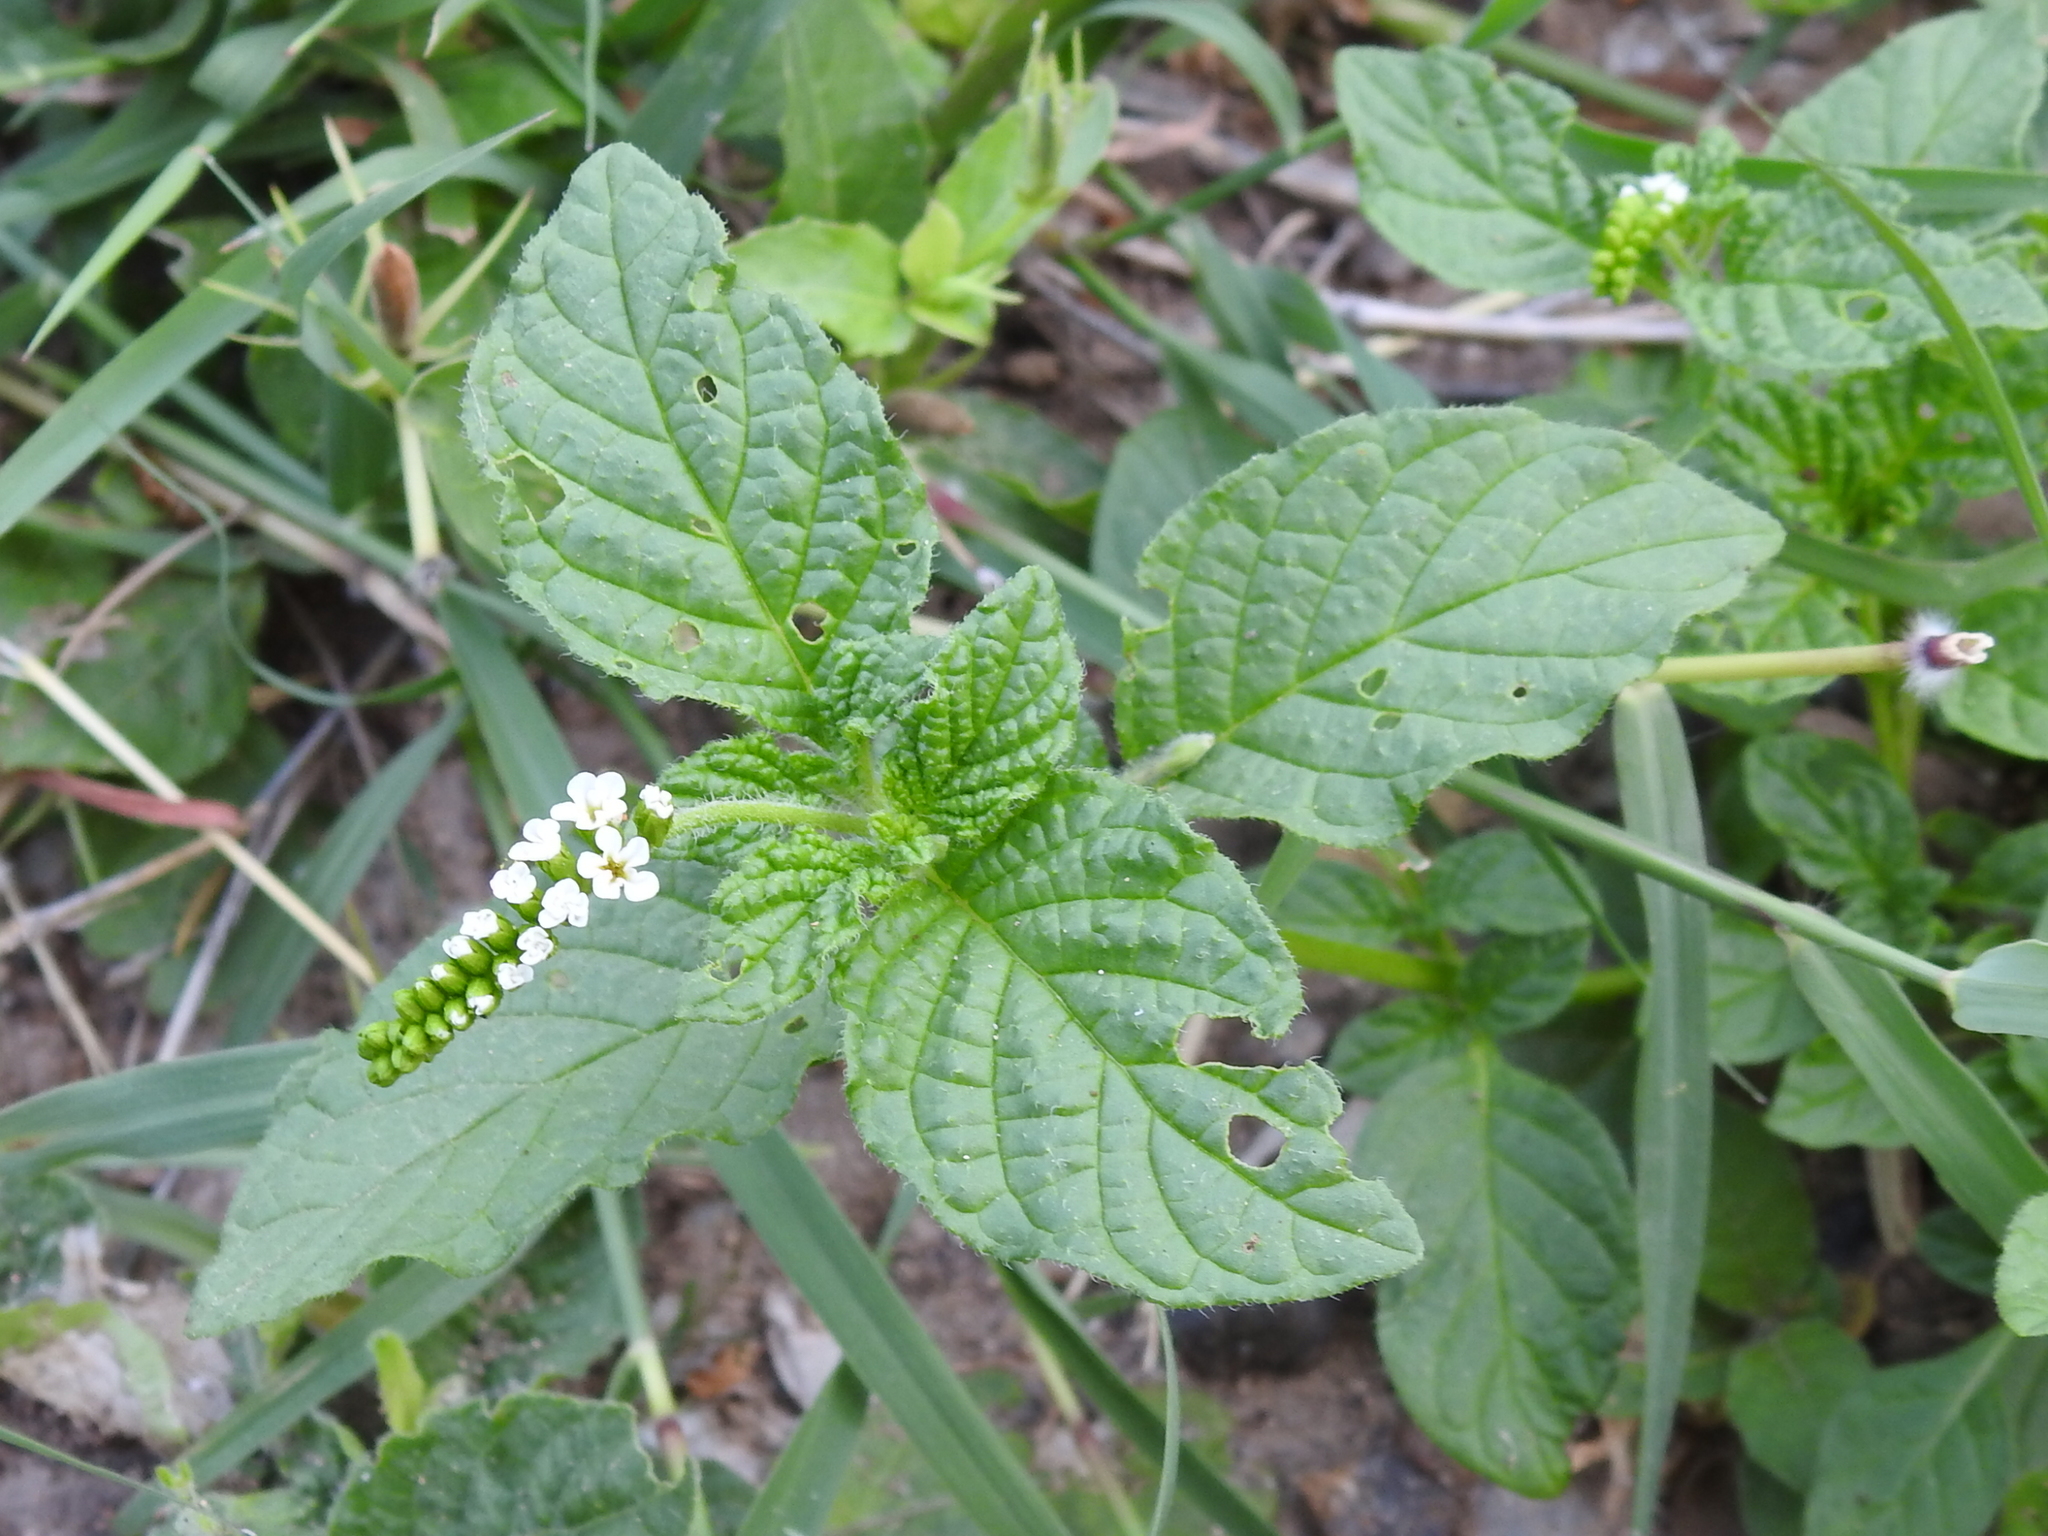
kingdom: Plantae
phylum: Tracheophyta
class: Magnoliopsida
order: Boraginales
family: Heliotropiaceae
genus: Heliotropium
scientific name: Heliotropium angiospermum
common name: Eye bright
